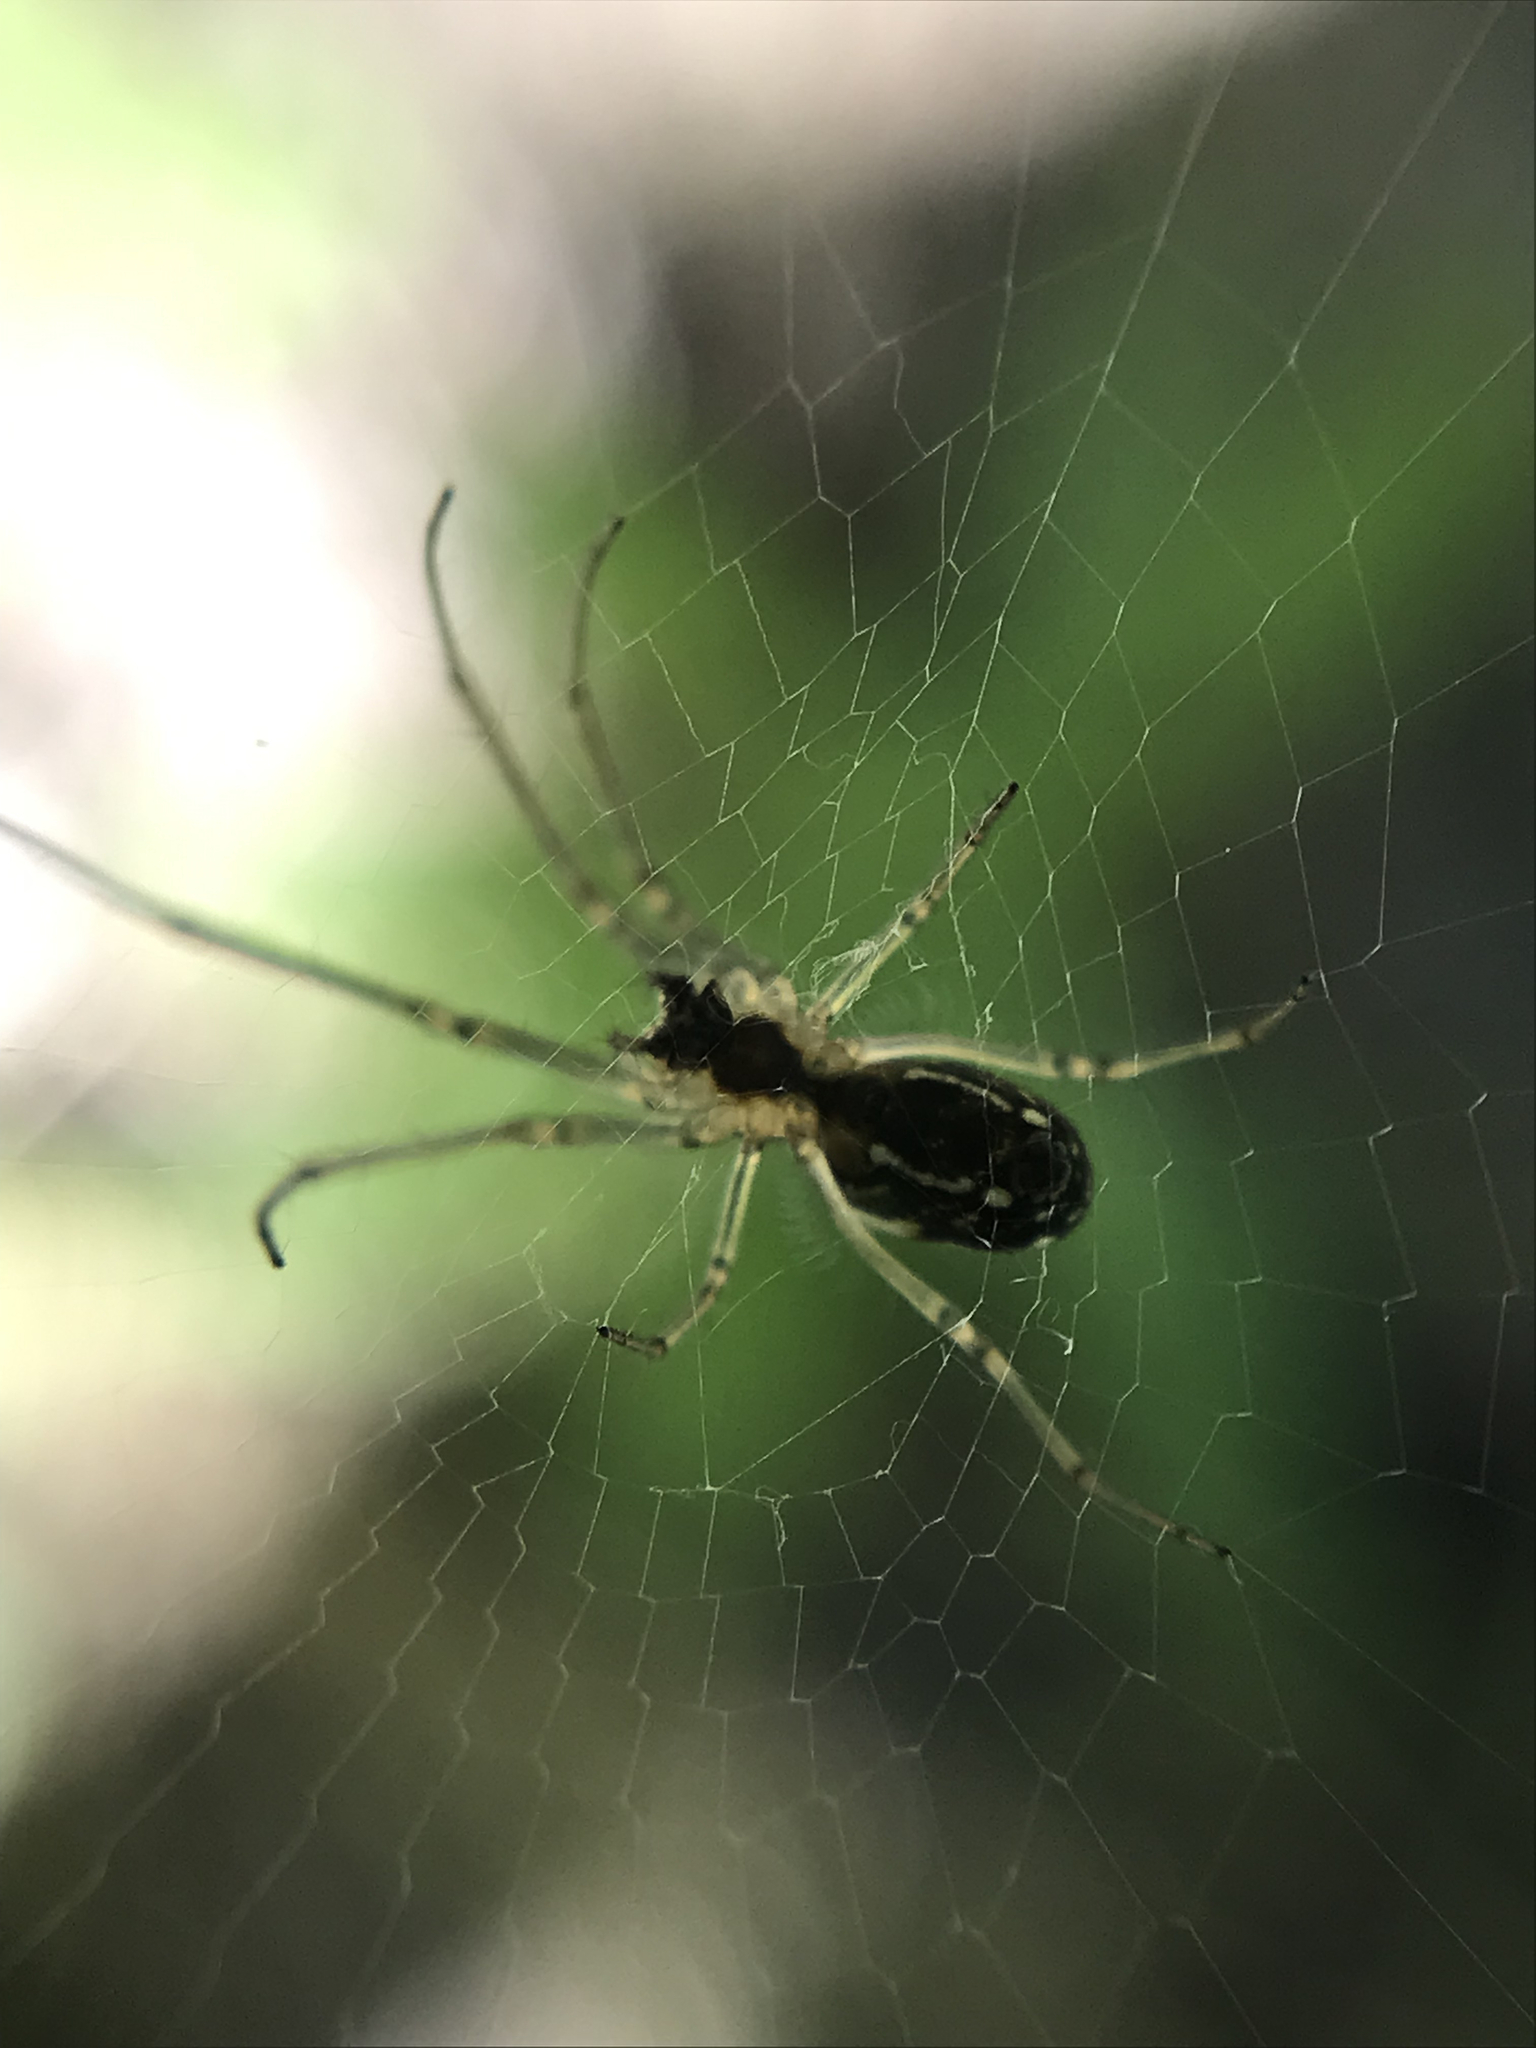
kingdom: Animalia
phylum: Arthropoda
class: Arachnida
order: Araneae
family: Tetragnathidae
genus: Leucauge
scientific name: Leucauge volupis
